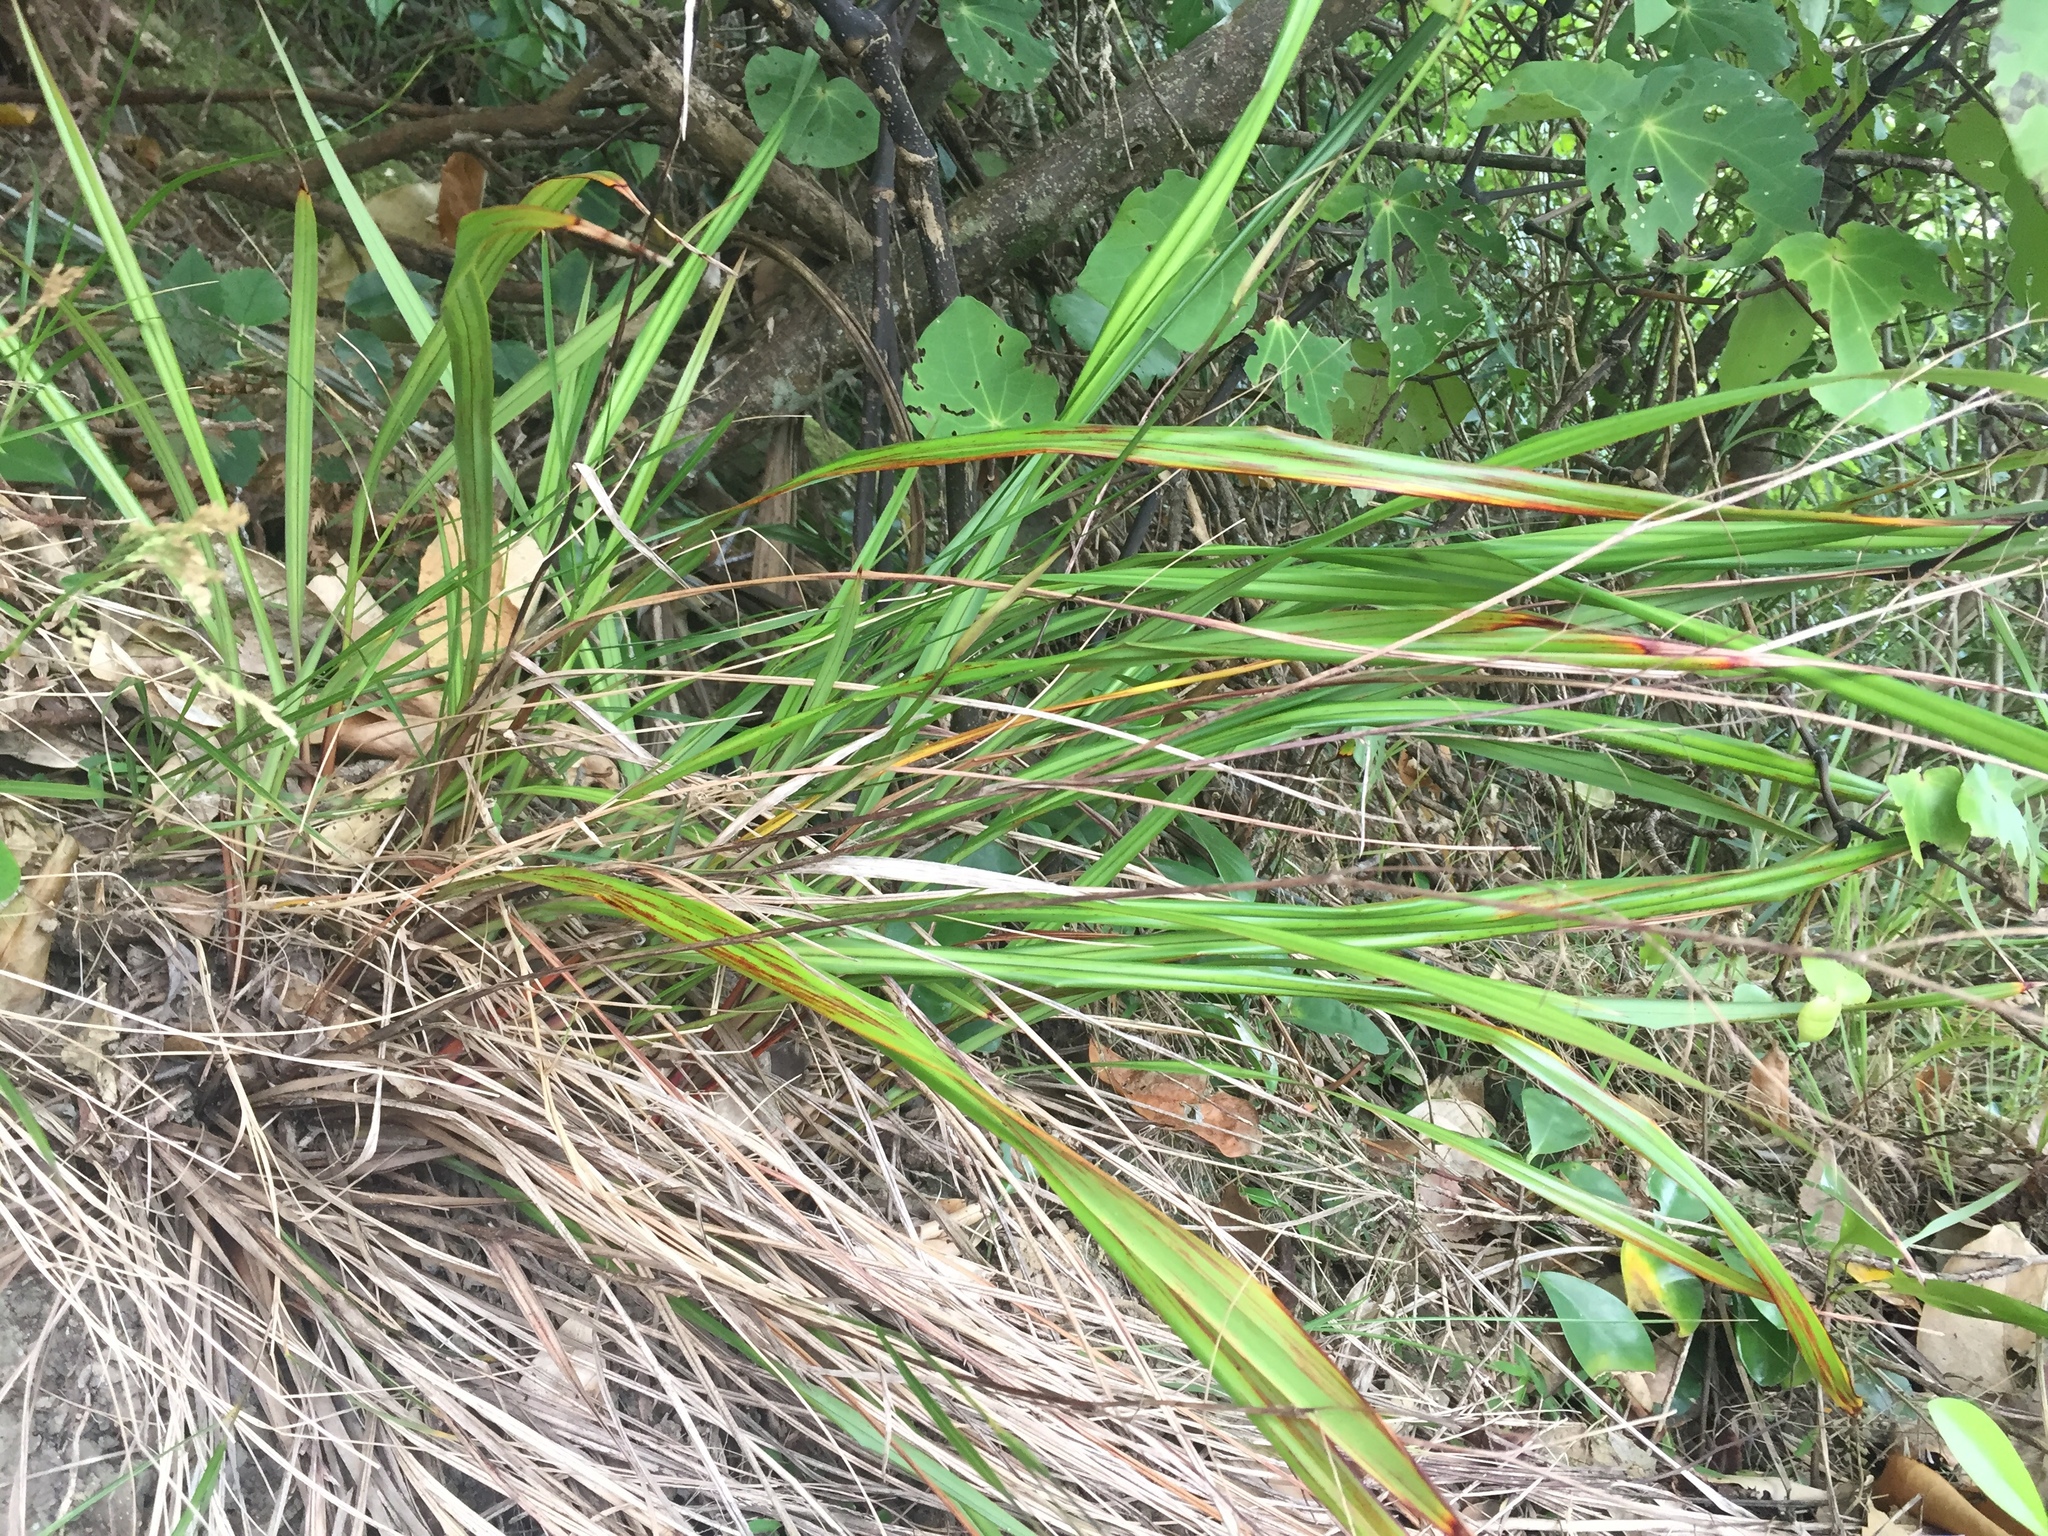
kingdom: Plantae
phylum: Tracheophyta
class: Liliopsida
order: Asparagales
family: Asphodelaceae
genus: Dianella
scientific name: Dianella nigra
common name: New zealand-blueberry
